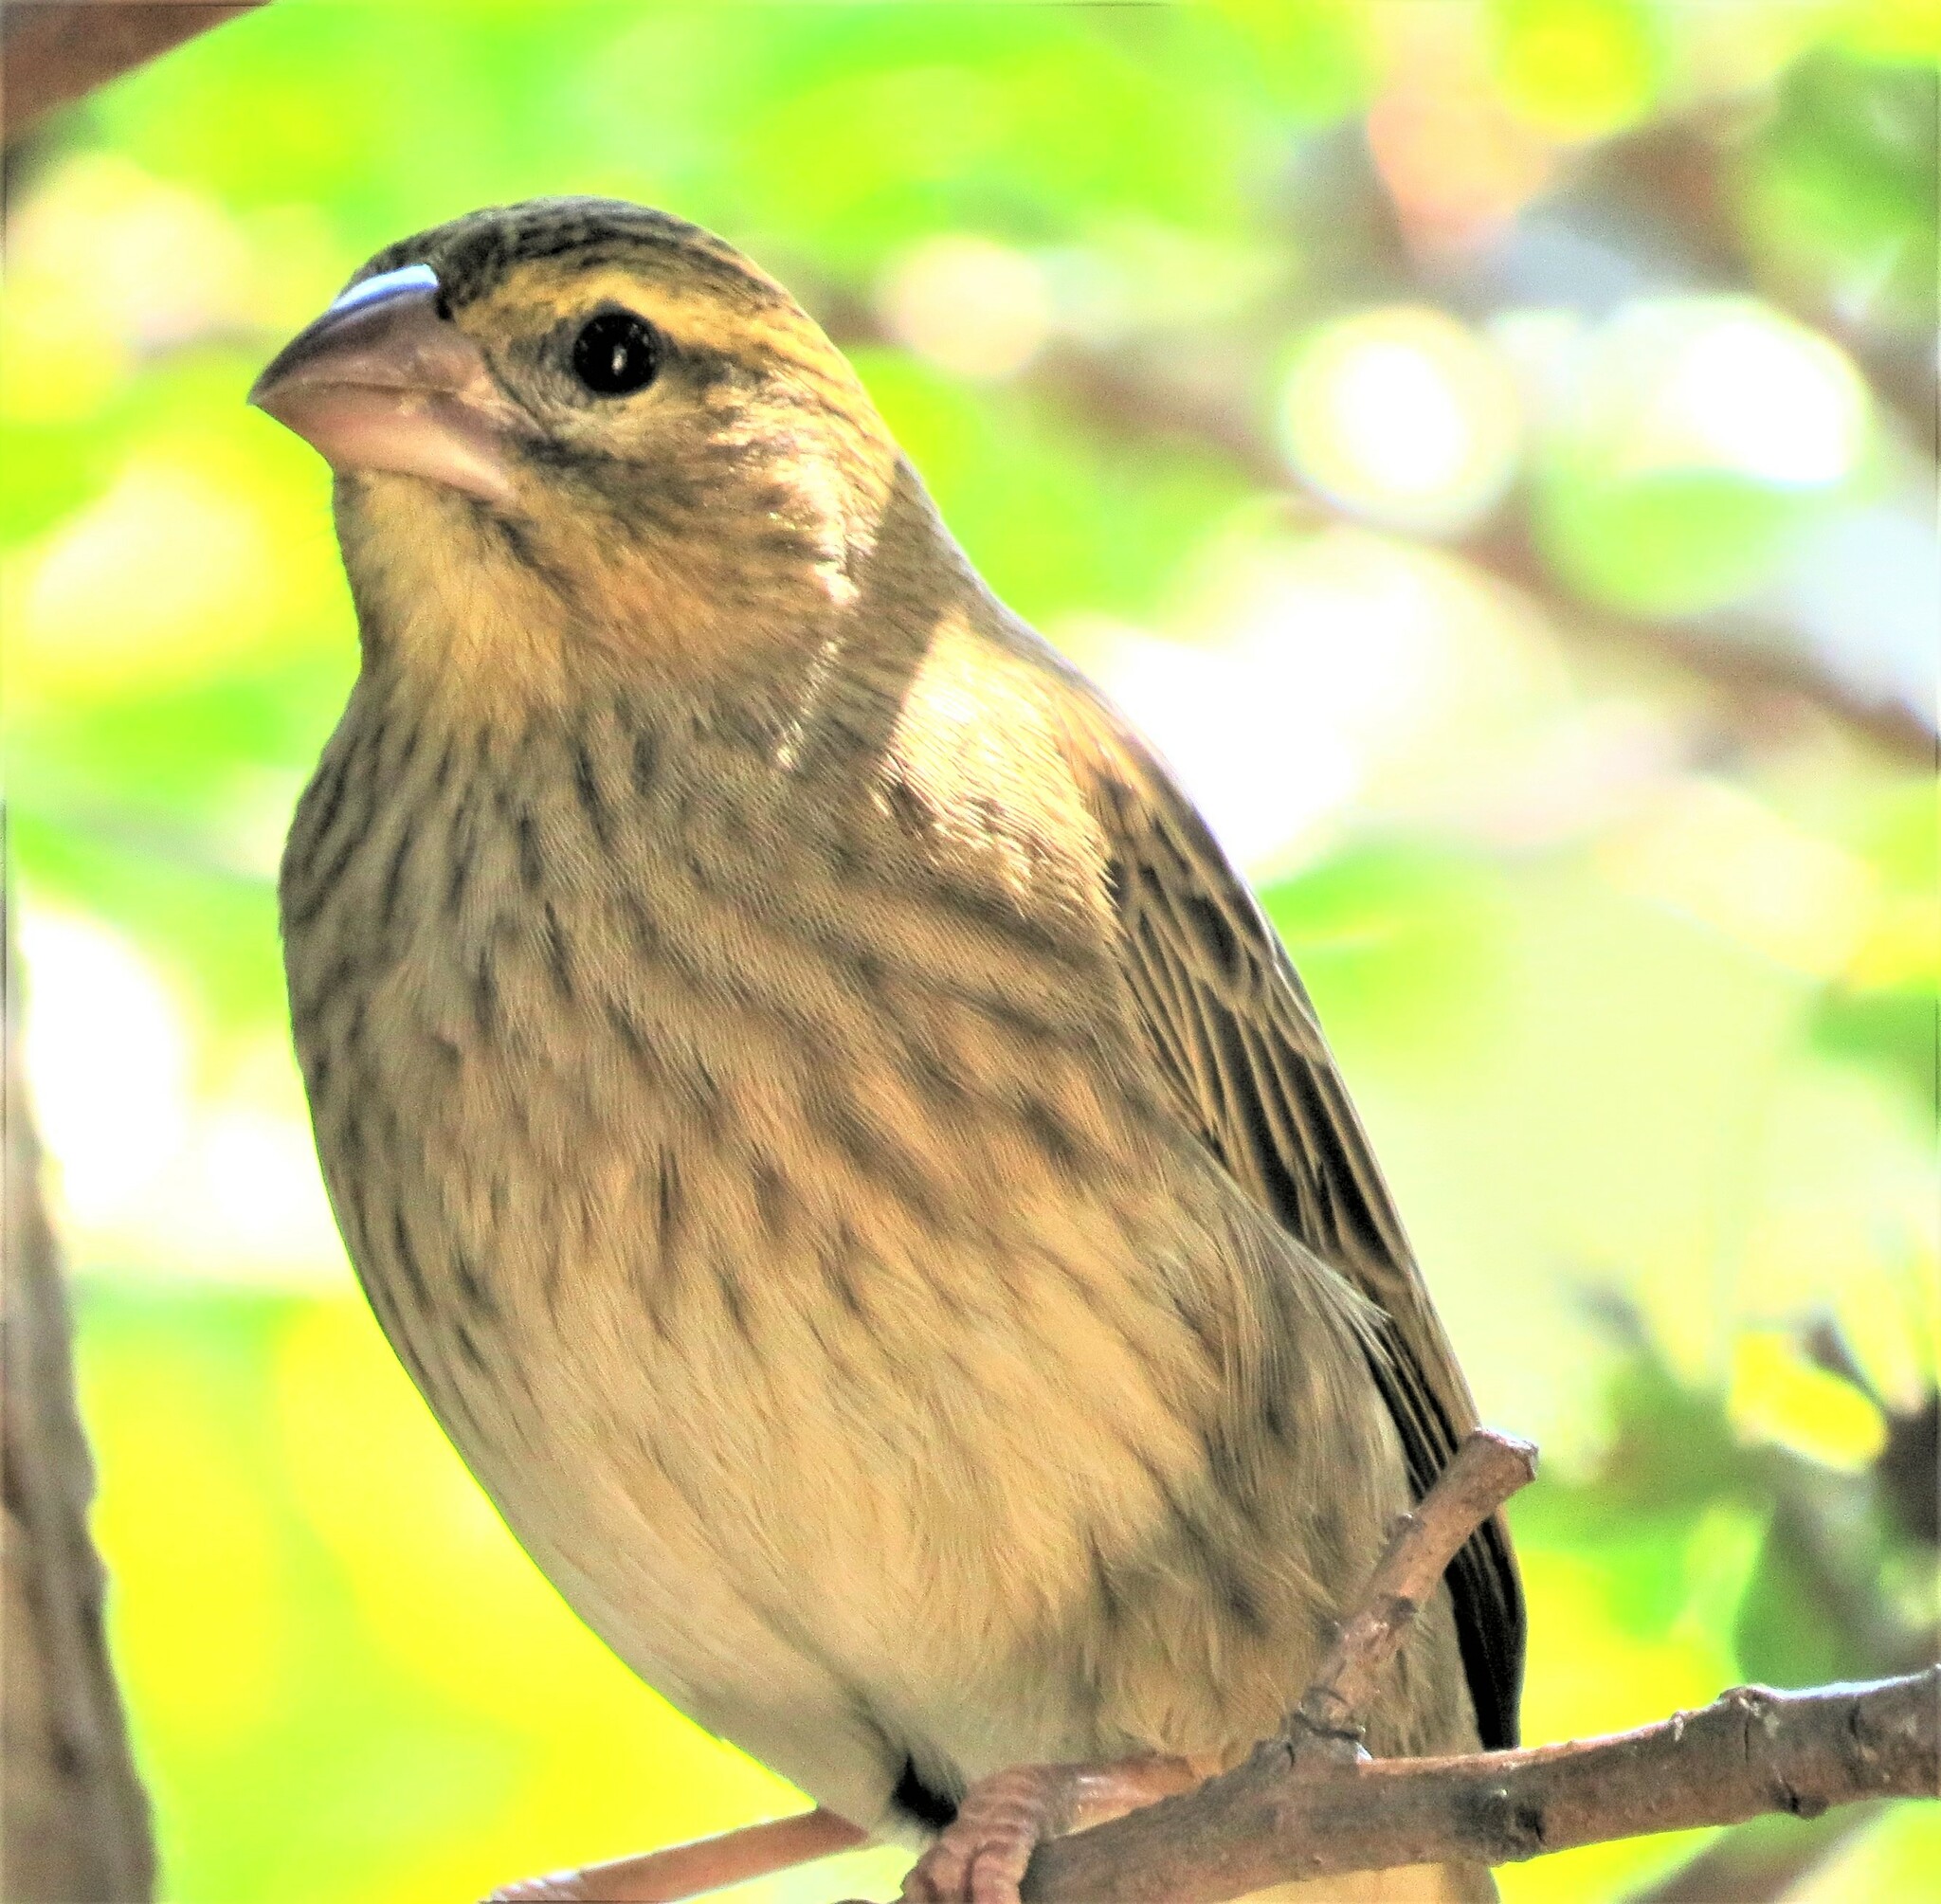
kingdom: Animalia
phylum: Chordata
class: Aves
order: Passeriformes
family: Ploceidae
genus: Euplectes
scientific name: Euplectes orix
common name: Southern red bishop
